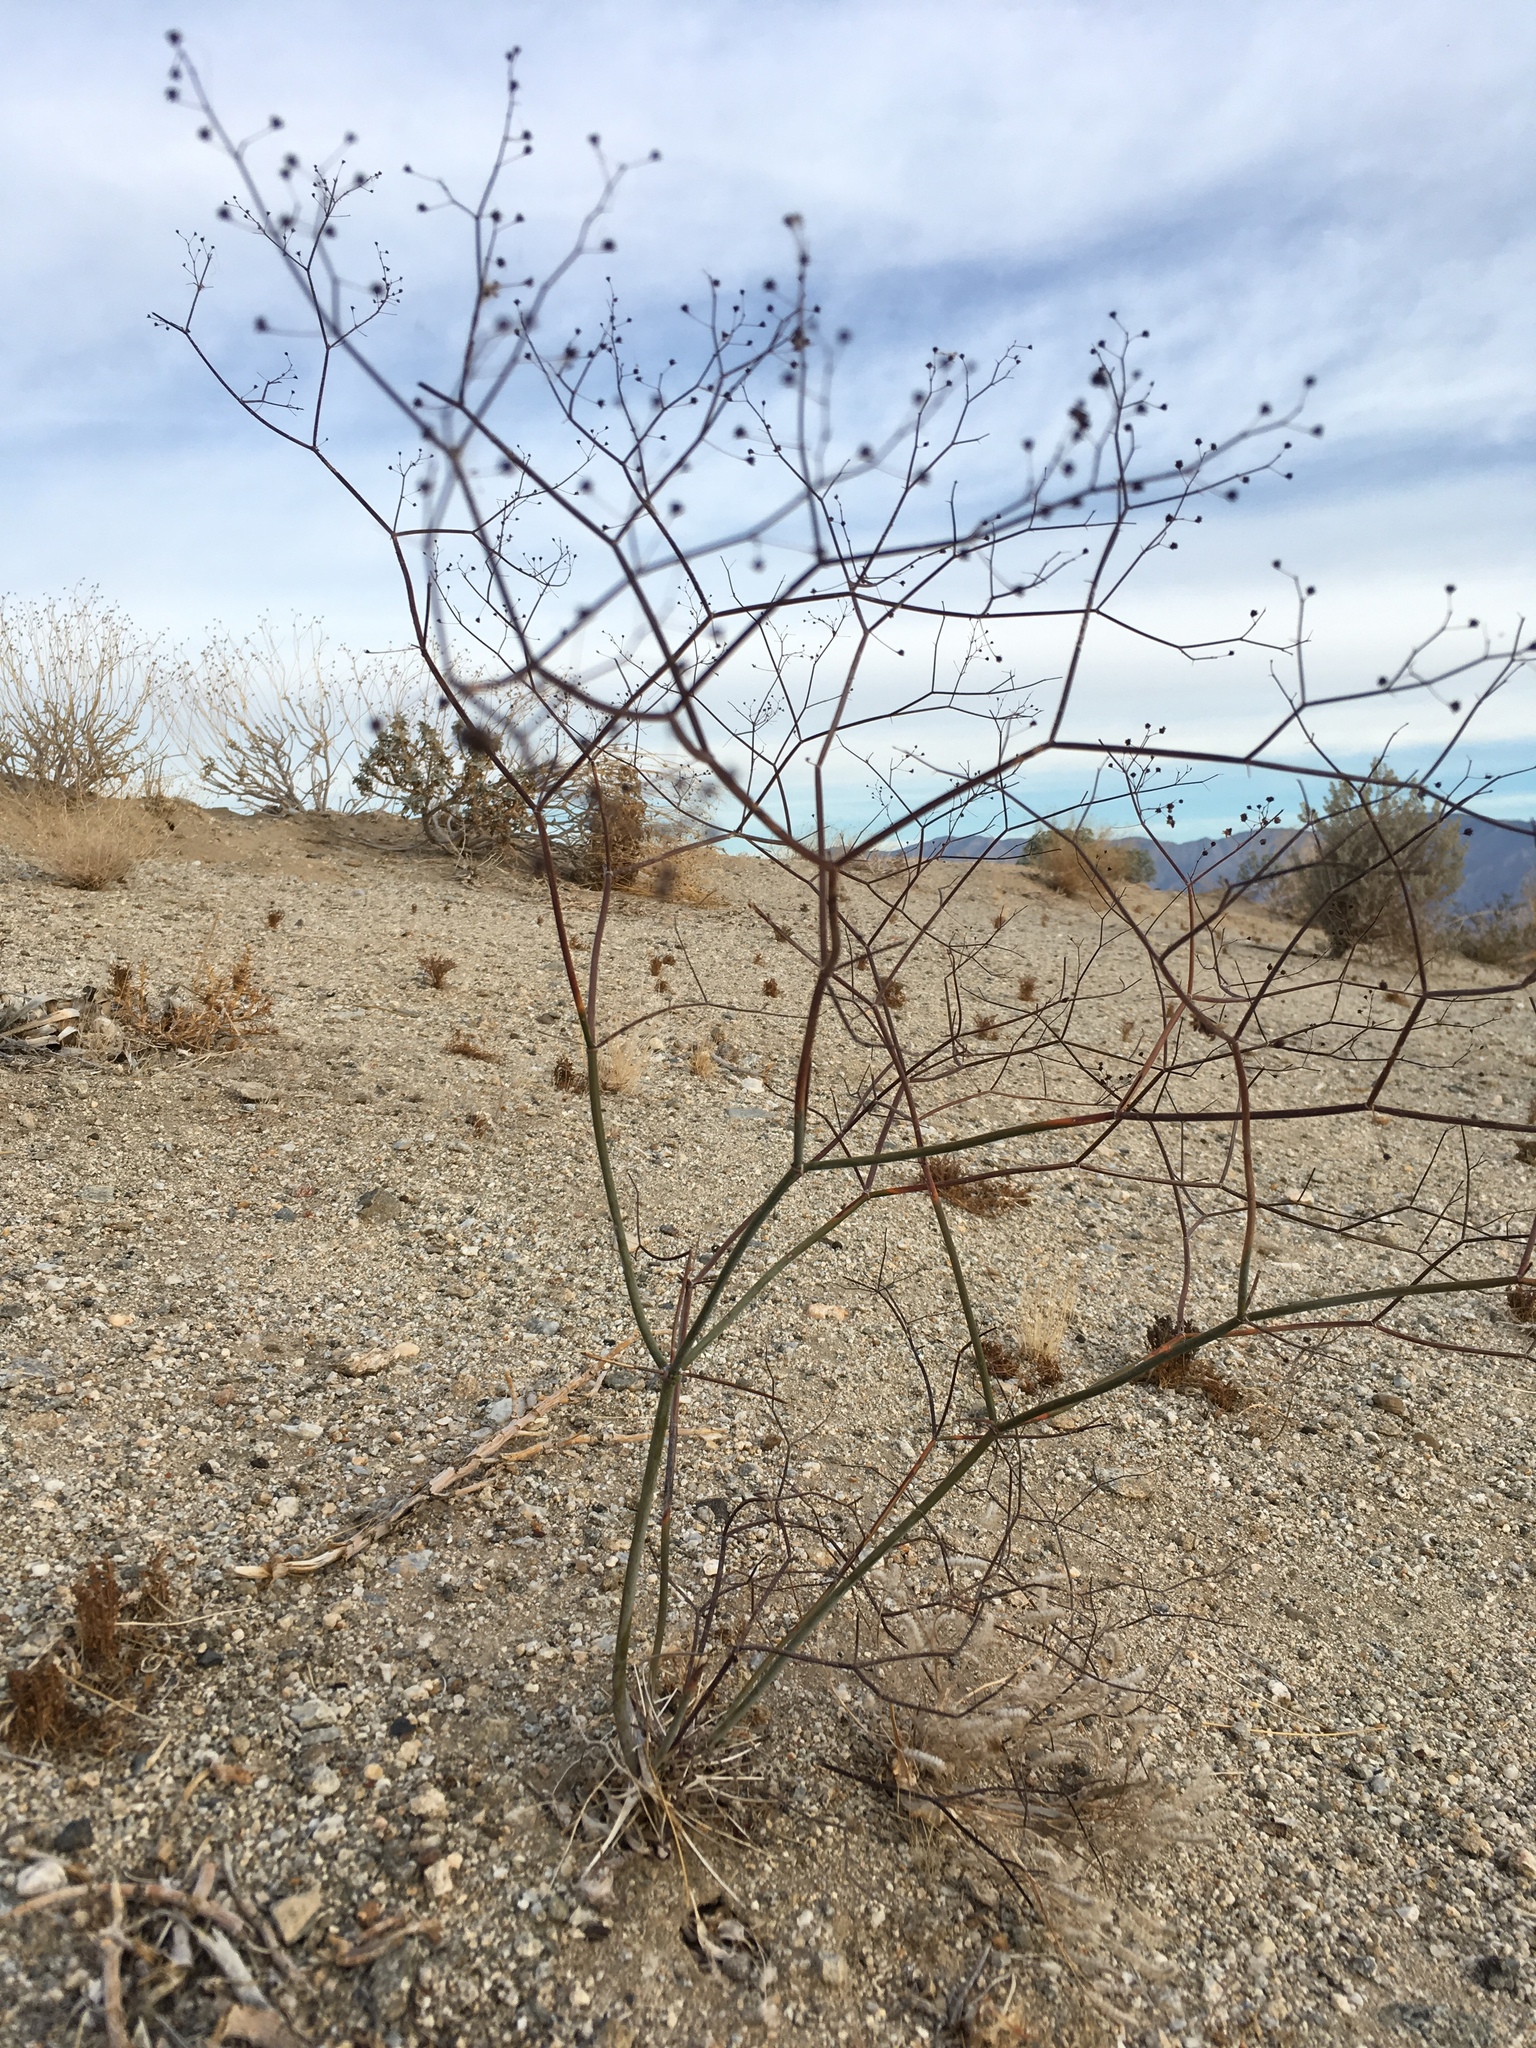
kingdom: Plantae
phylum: Tracheophyta
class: Magnoliopsida
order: Caryophyllales
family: Polygonaceae
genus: Eriogonum
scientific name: Eriogonum inflatum
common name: Desert trumpet
